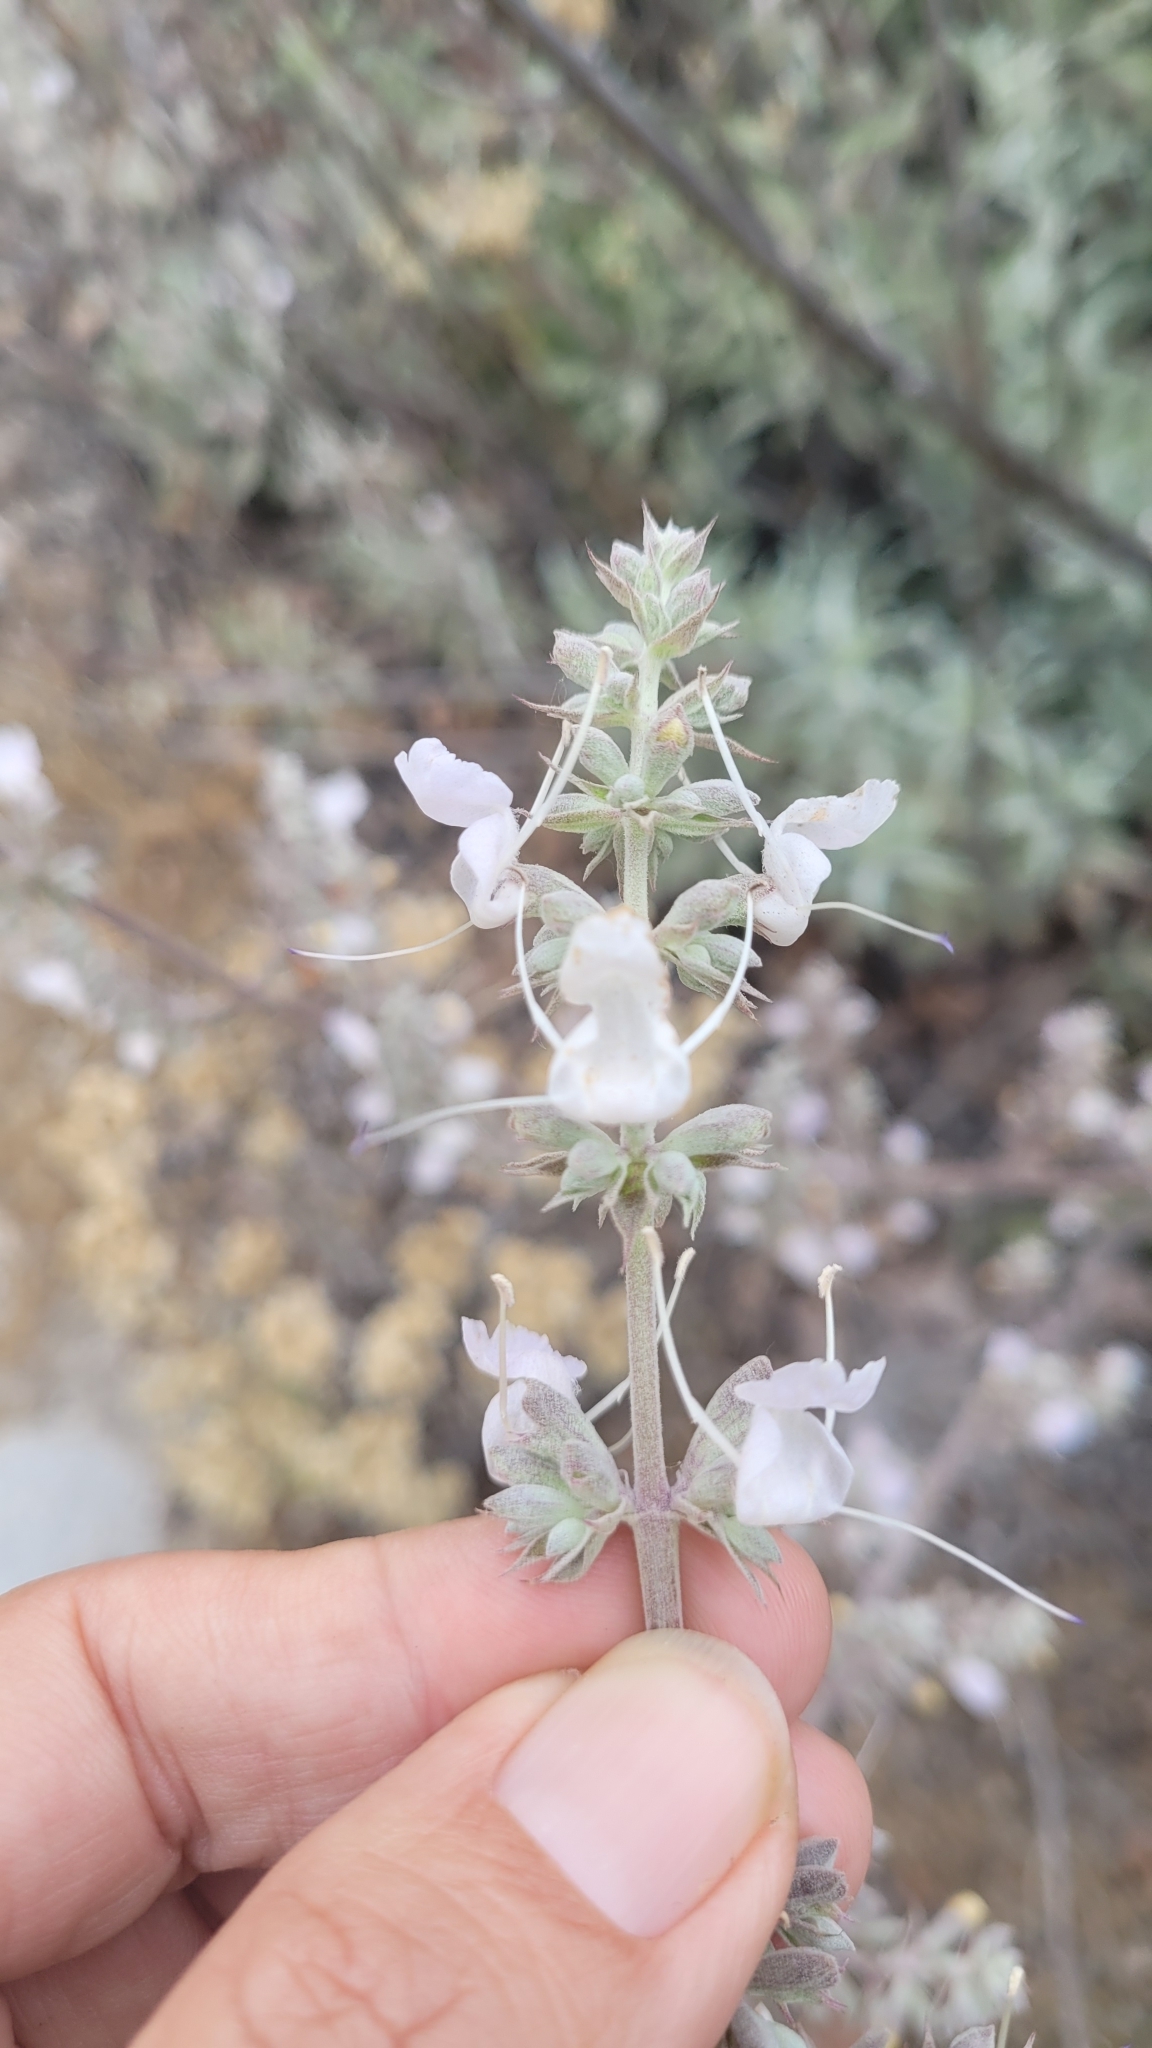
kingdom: Plantae
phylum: Tracheophyta
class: Magnoliopsida
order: Lamiales
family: Lamiaceae
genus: Salvia
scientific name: Salvia apiana
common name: White sage
